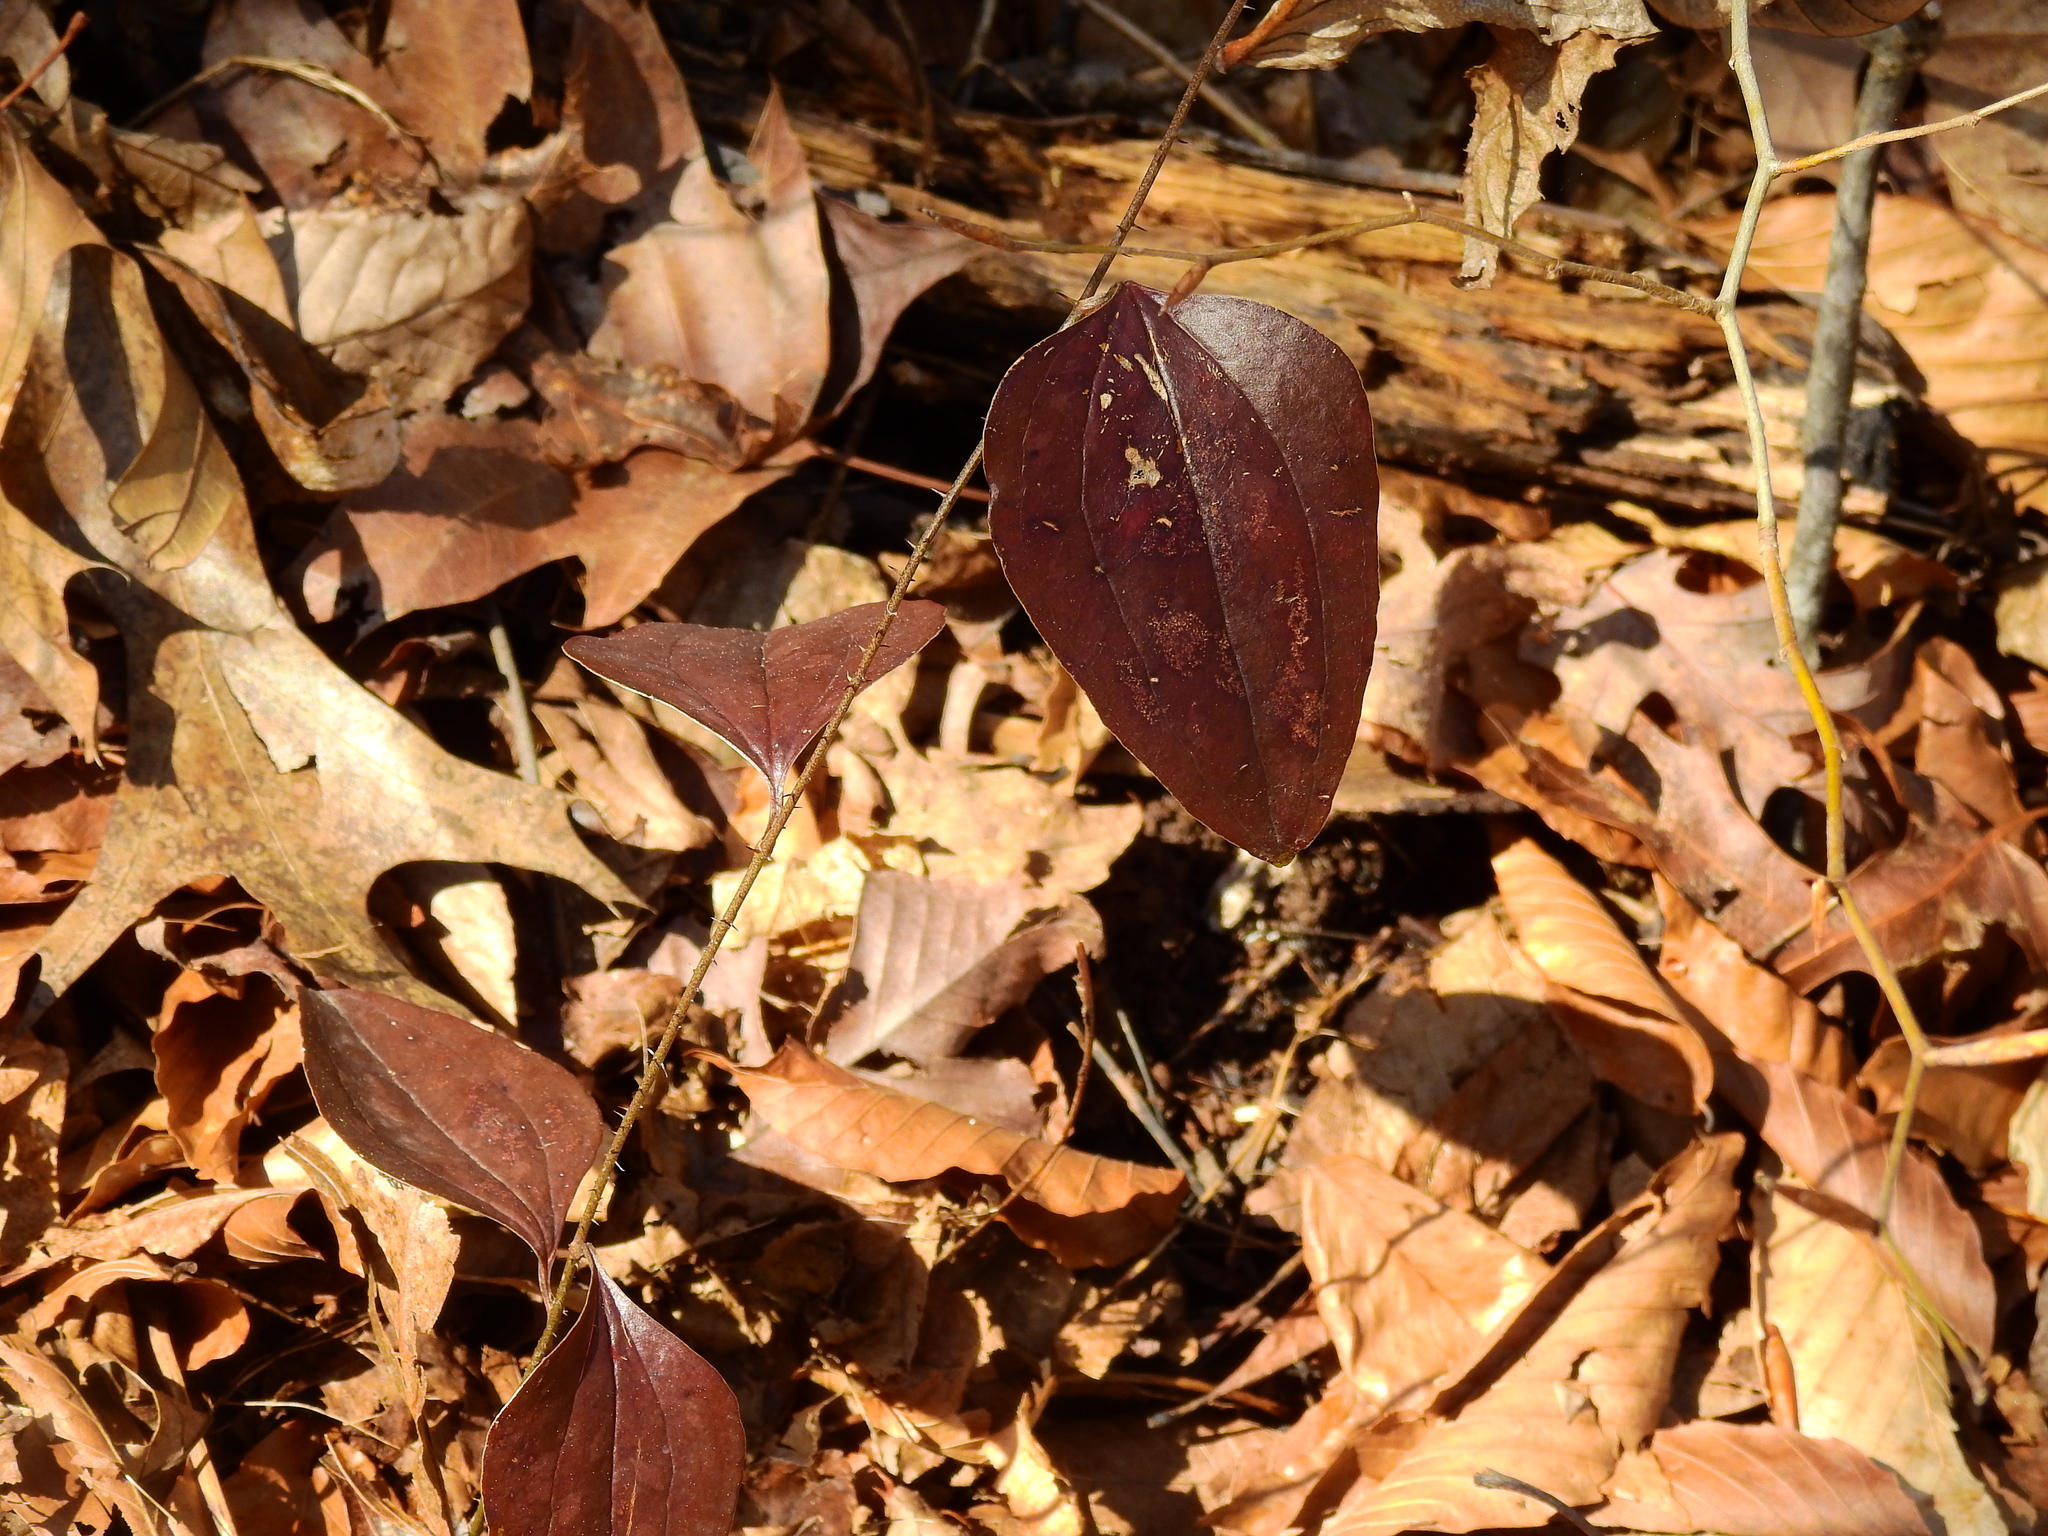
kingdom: Plantae
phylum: Tracheophyta
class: Liliopsida
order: Liliales
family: Smilacaceae
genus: Smilax
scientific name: Smilax glauca
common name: Cat greenbrier
